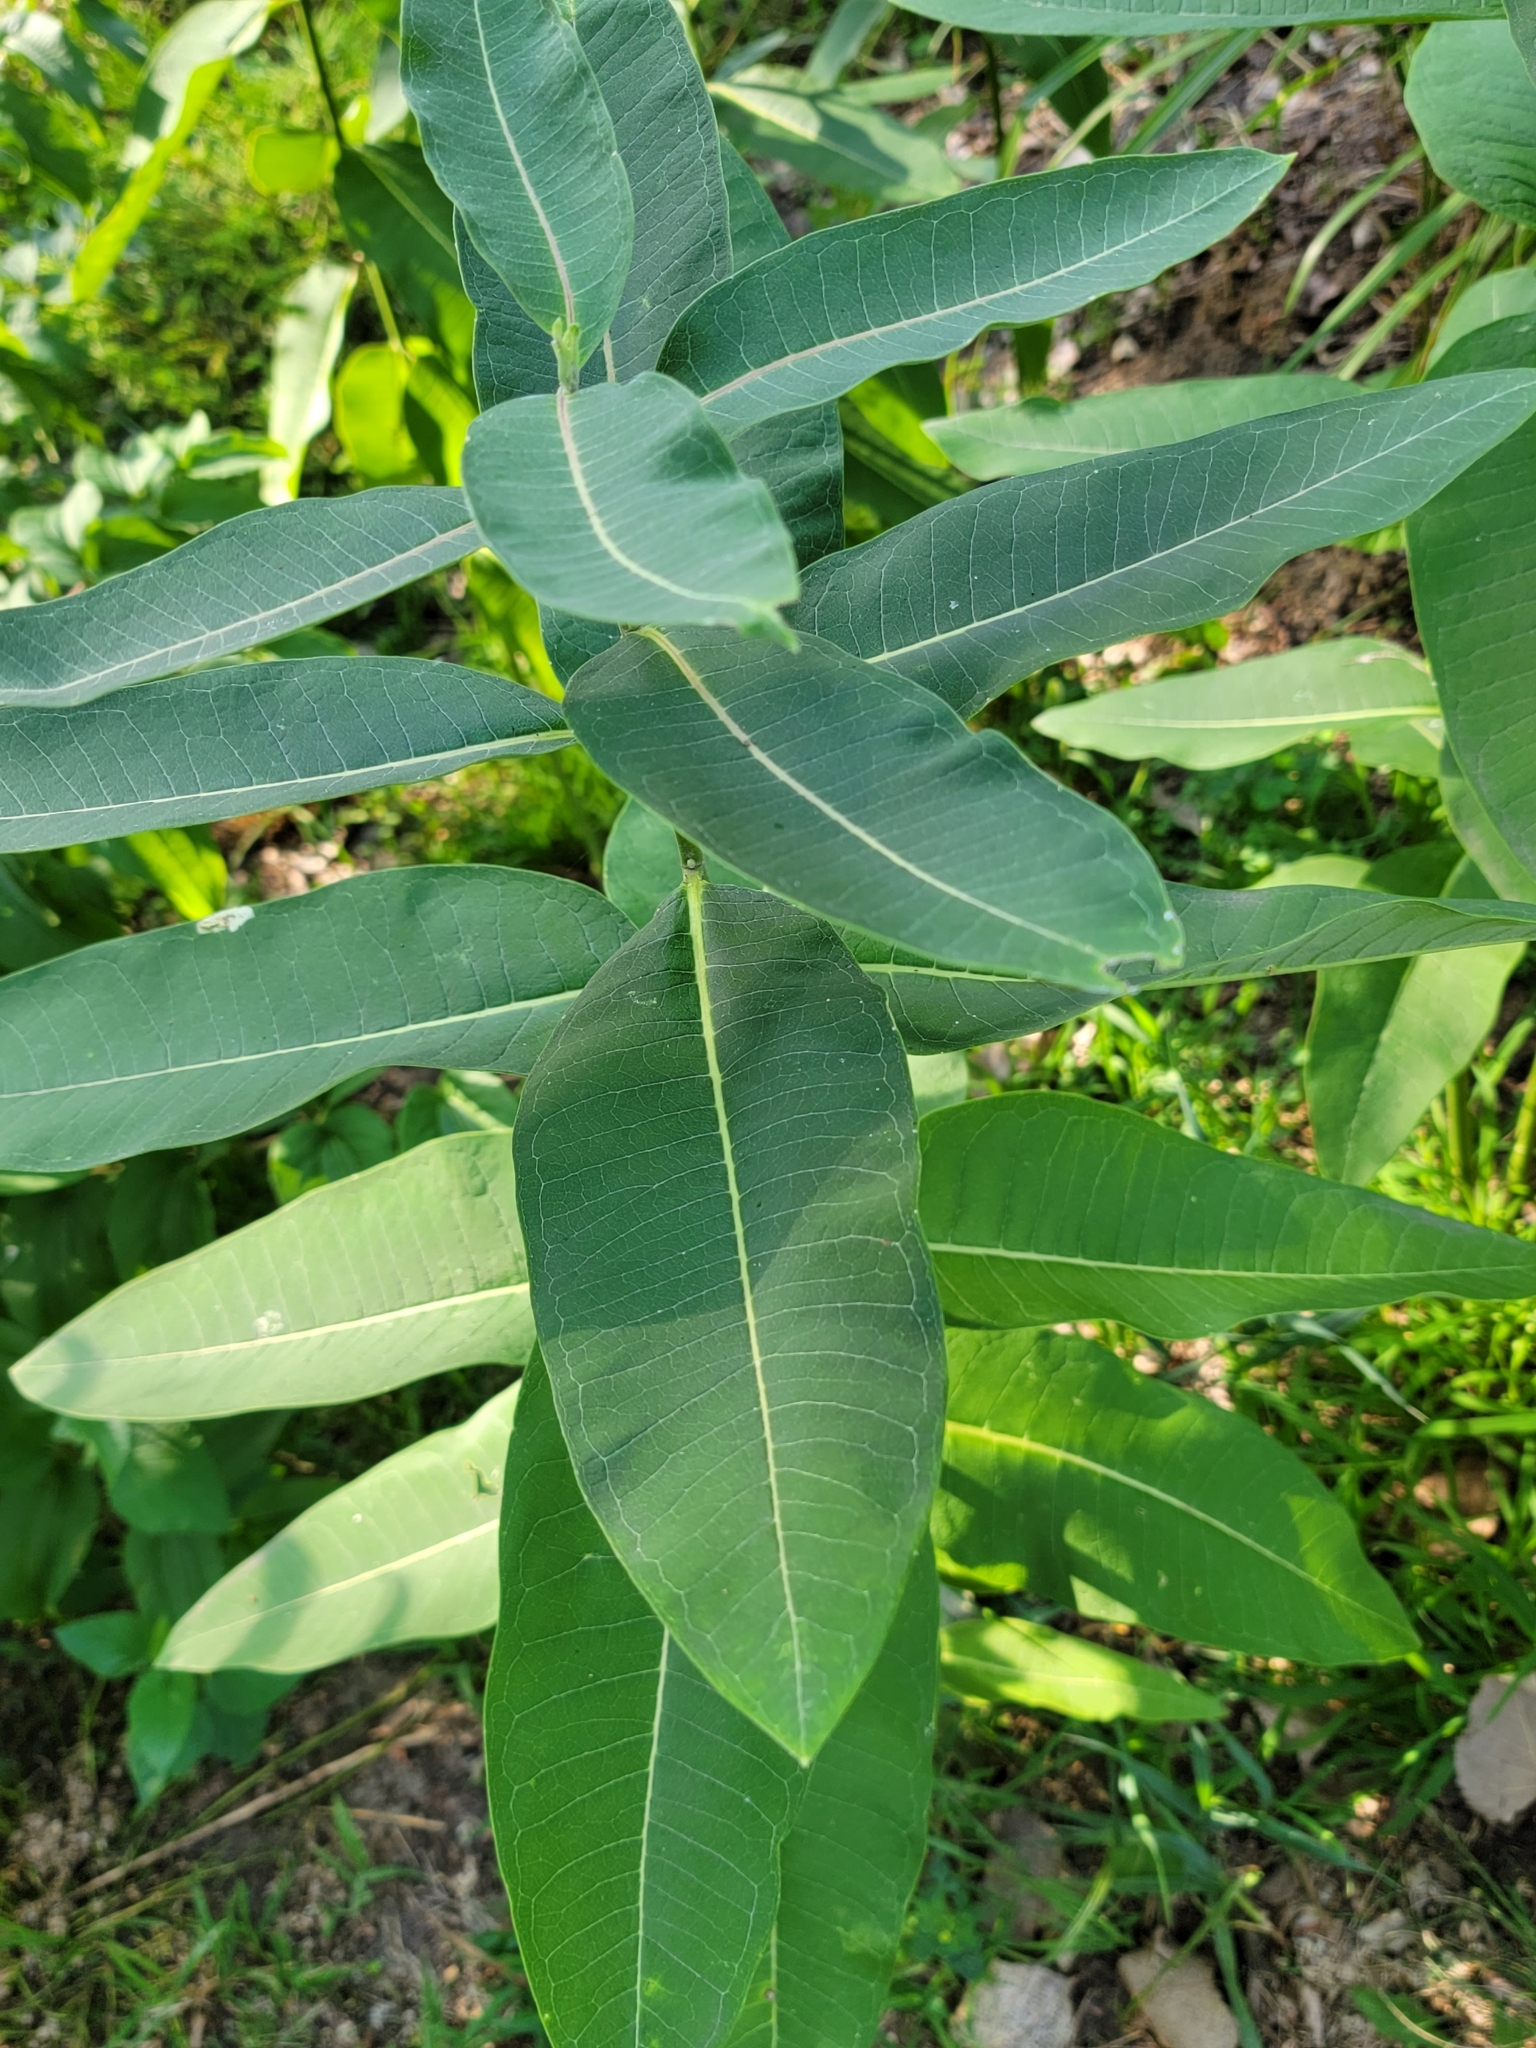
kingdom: Plantae
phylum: Tracheophyta
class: Magnoliopsida
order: Gentianales
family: Apocynaceae
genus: Asclepias
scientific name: Asclepias syriaca
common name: Common milkweed
